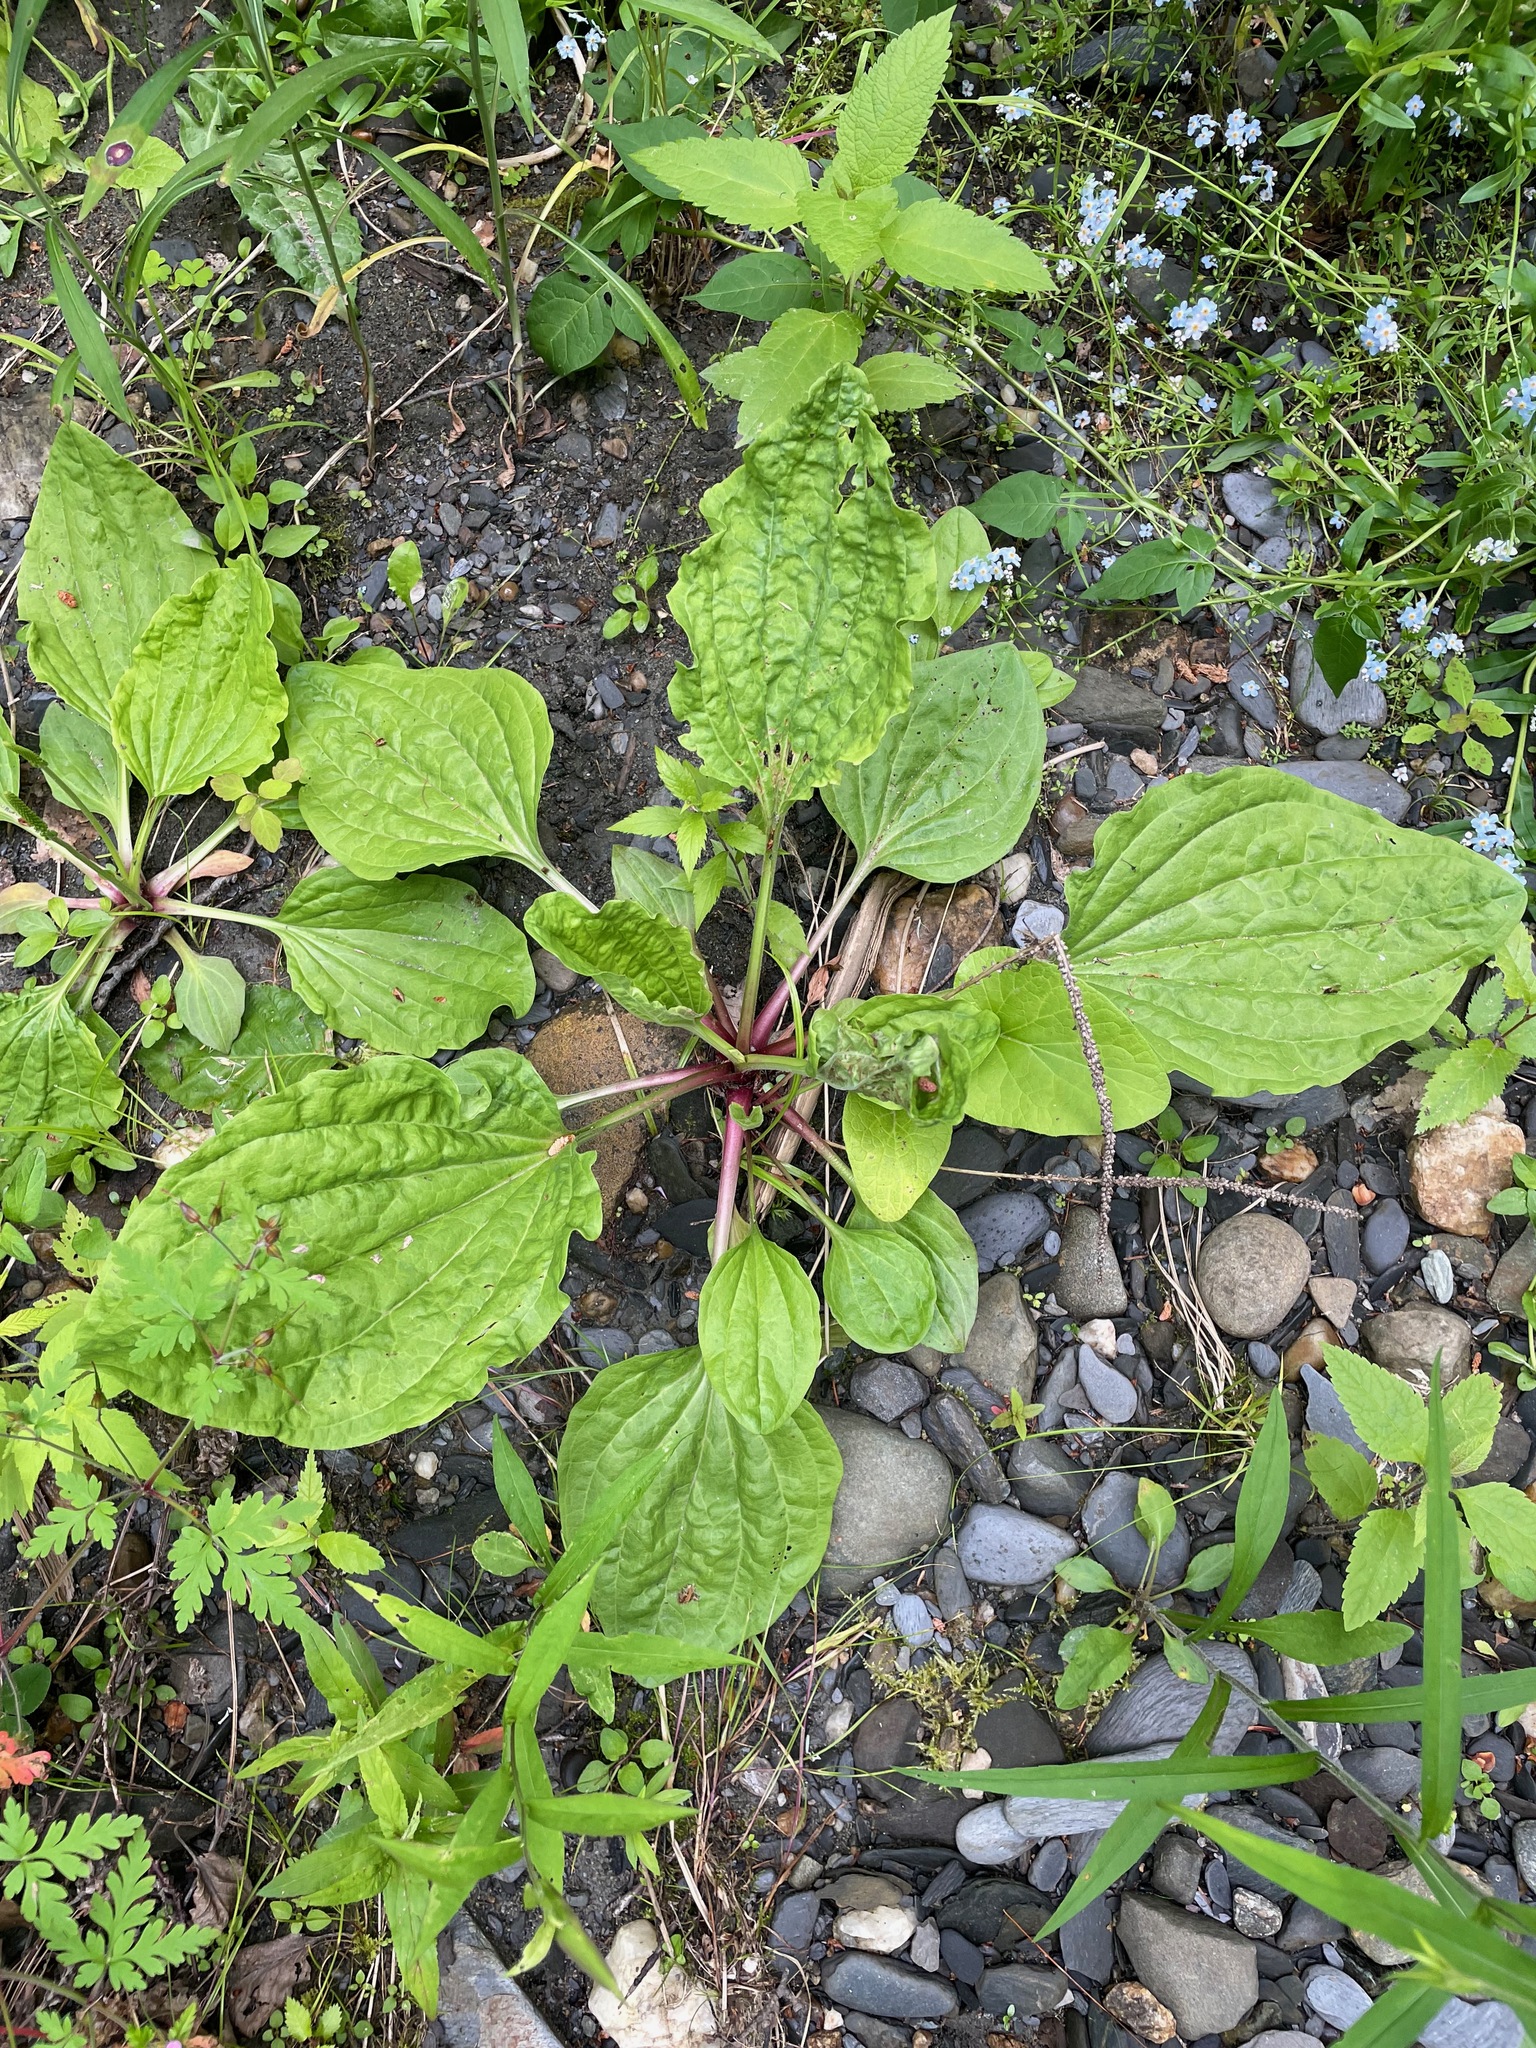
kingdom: Plantae
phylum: Tracheophyta
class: Magnoliopsida
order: Lamiales
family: Plantaginaceae
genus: Plantago
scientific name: Plantago rugelii
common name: American plantain
